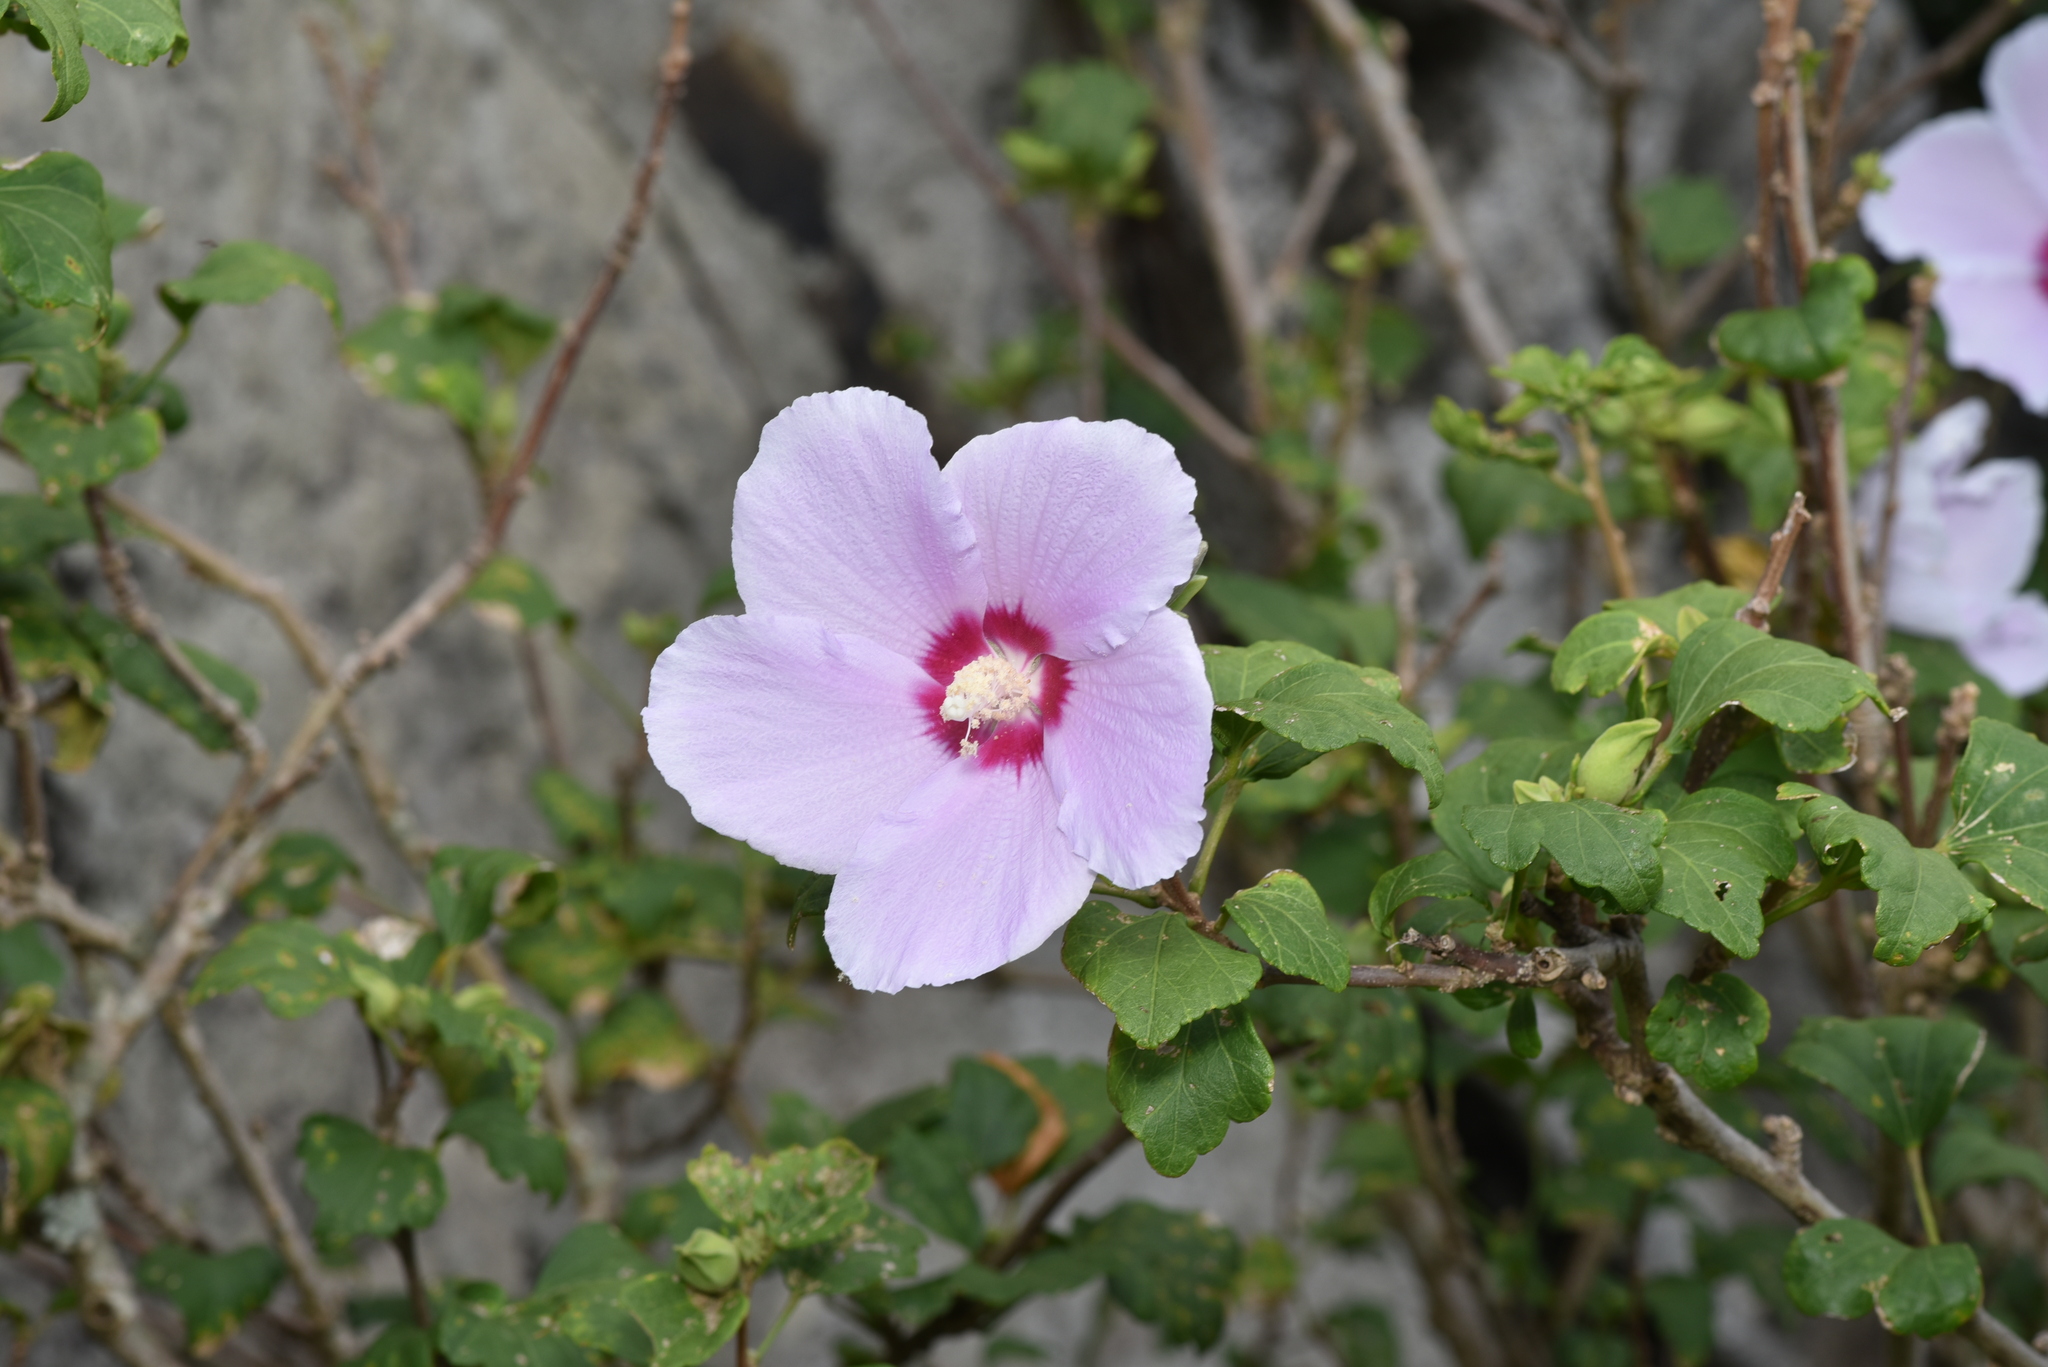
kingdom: Plantae
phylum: Tracheophyta
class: Magnoliopsida
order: Malvales
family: Malvaceae
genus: Hibiscus
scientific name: Hibiscus syriacus
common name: Syrian ketmia
